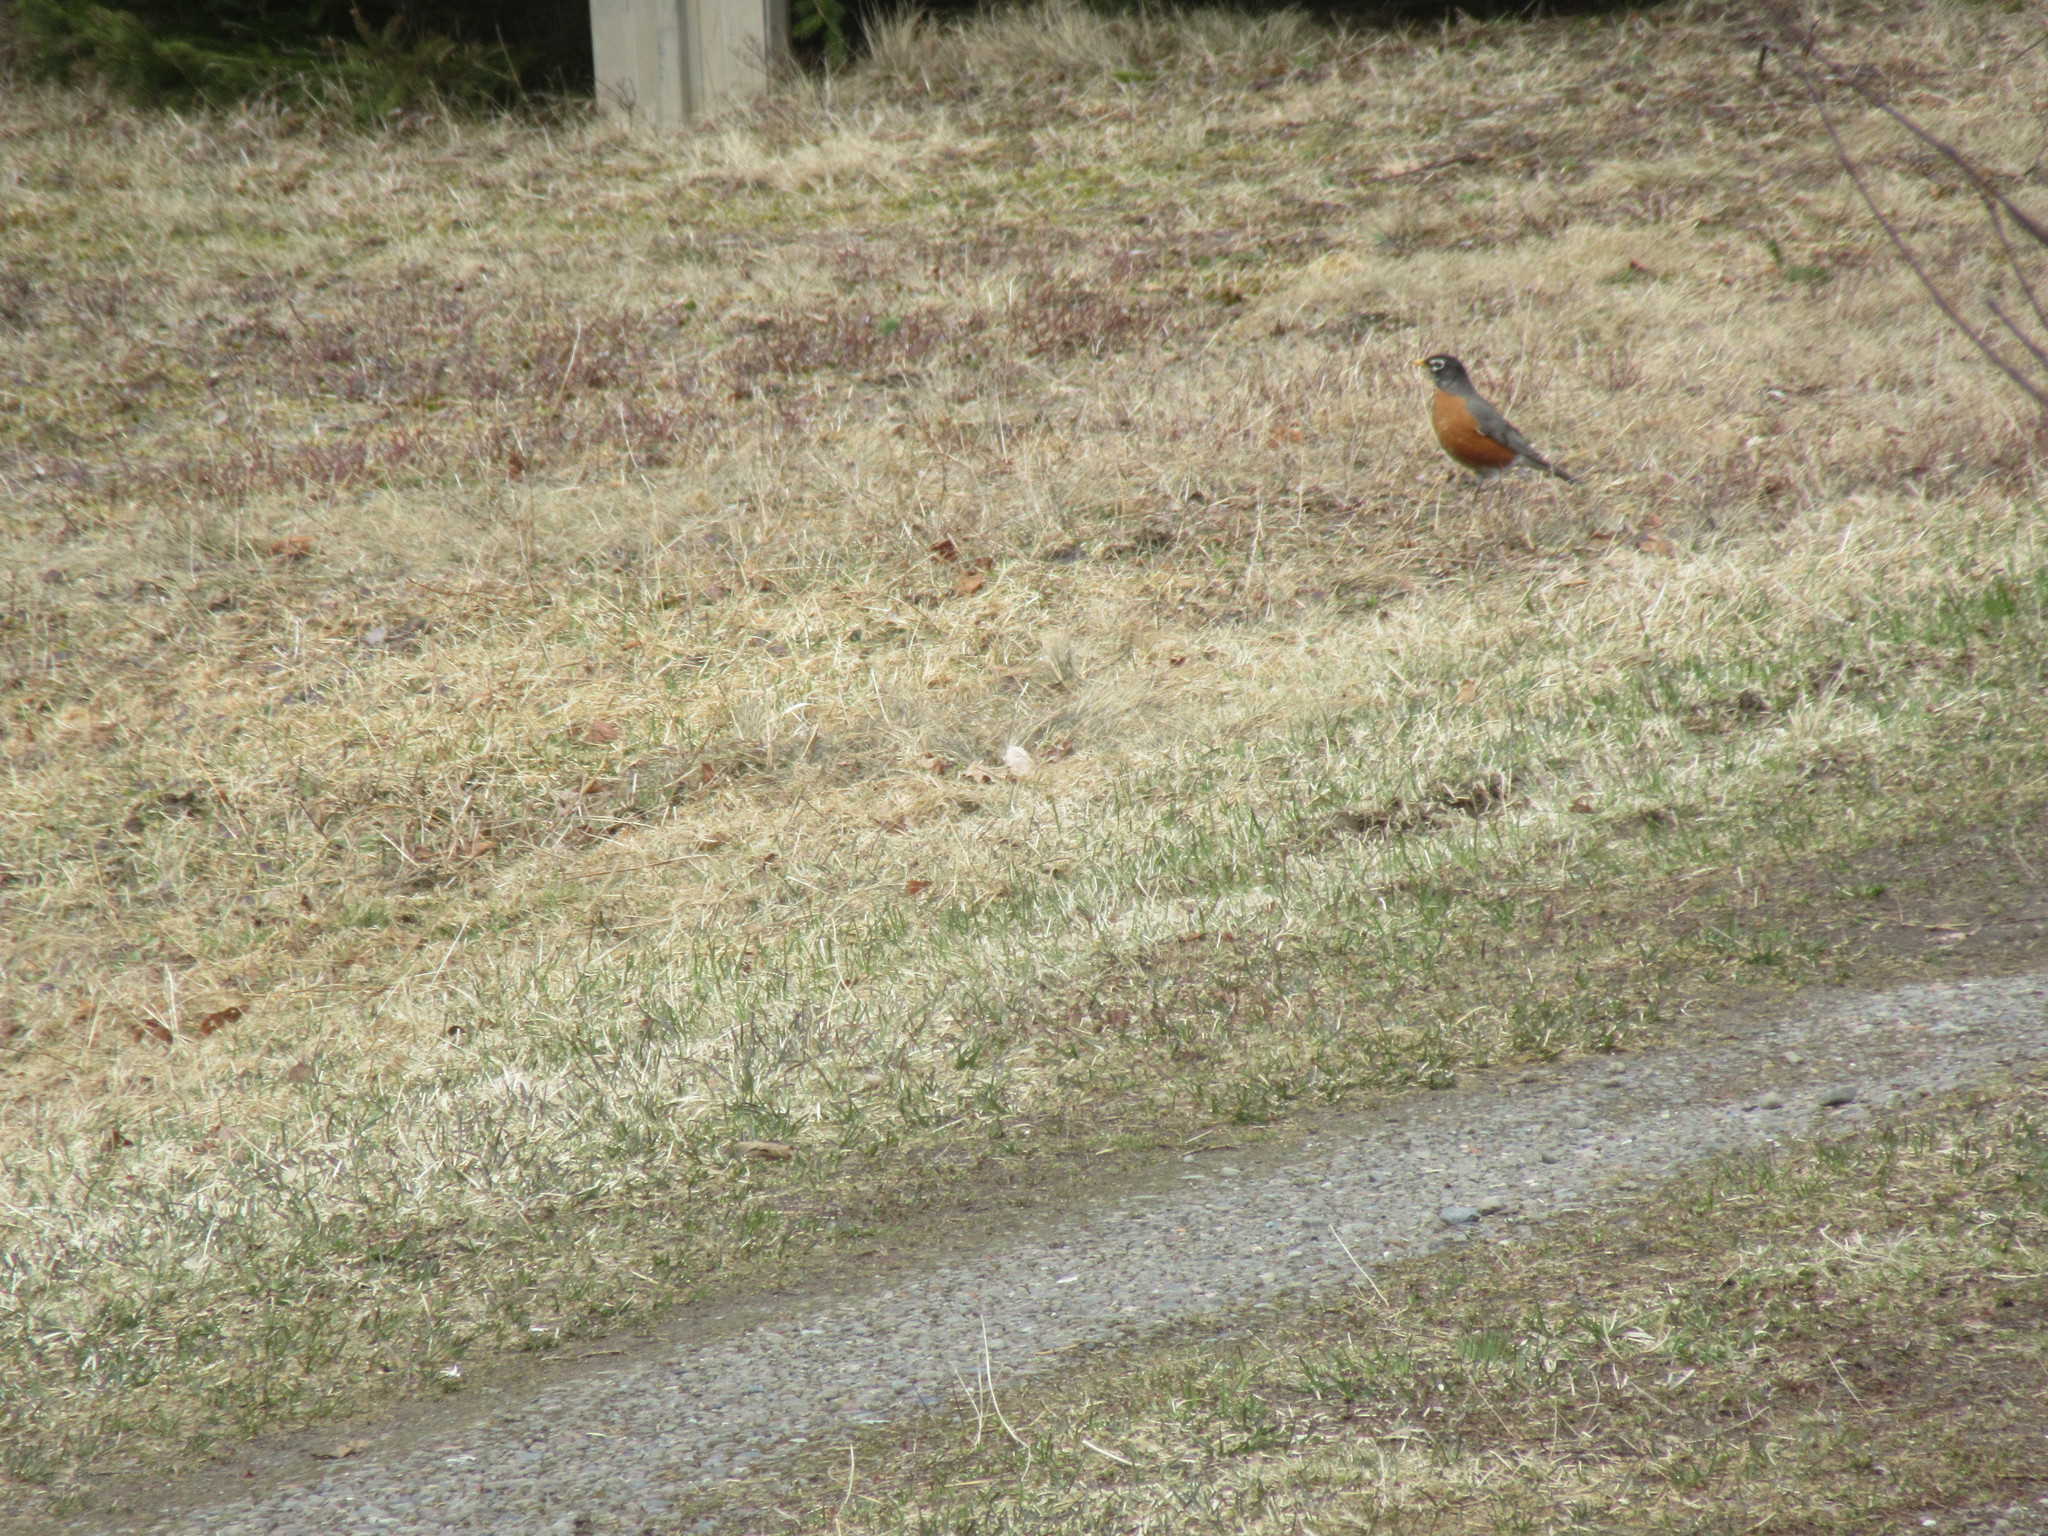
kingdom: Animalia
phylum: Chordata
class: Aves
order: Passeriformes
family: Turdidae
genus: Turdus
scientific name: Turdus migratorius
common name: American robin
